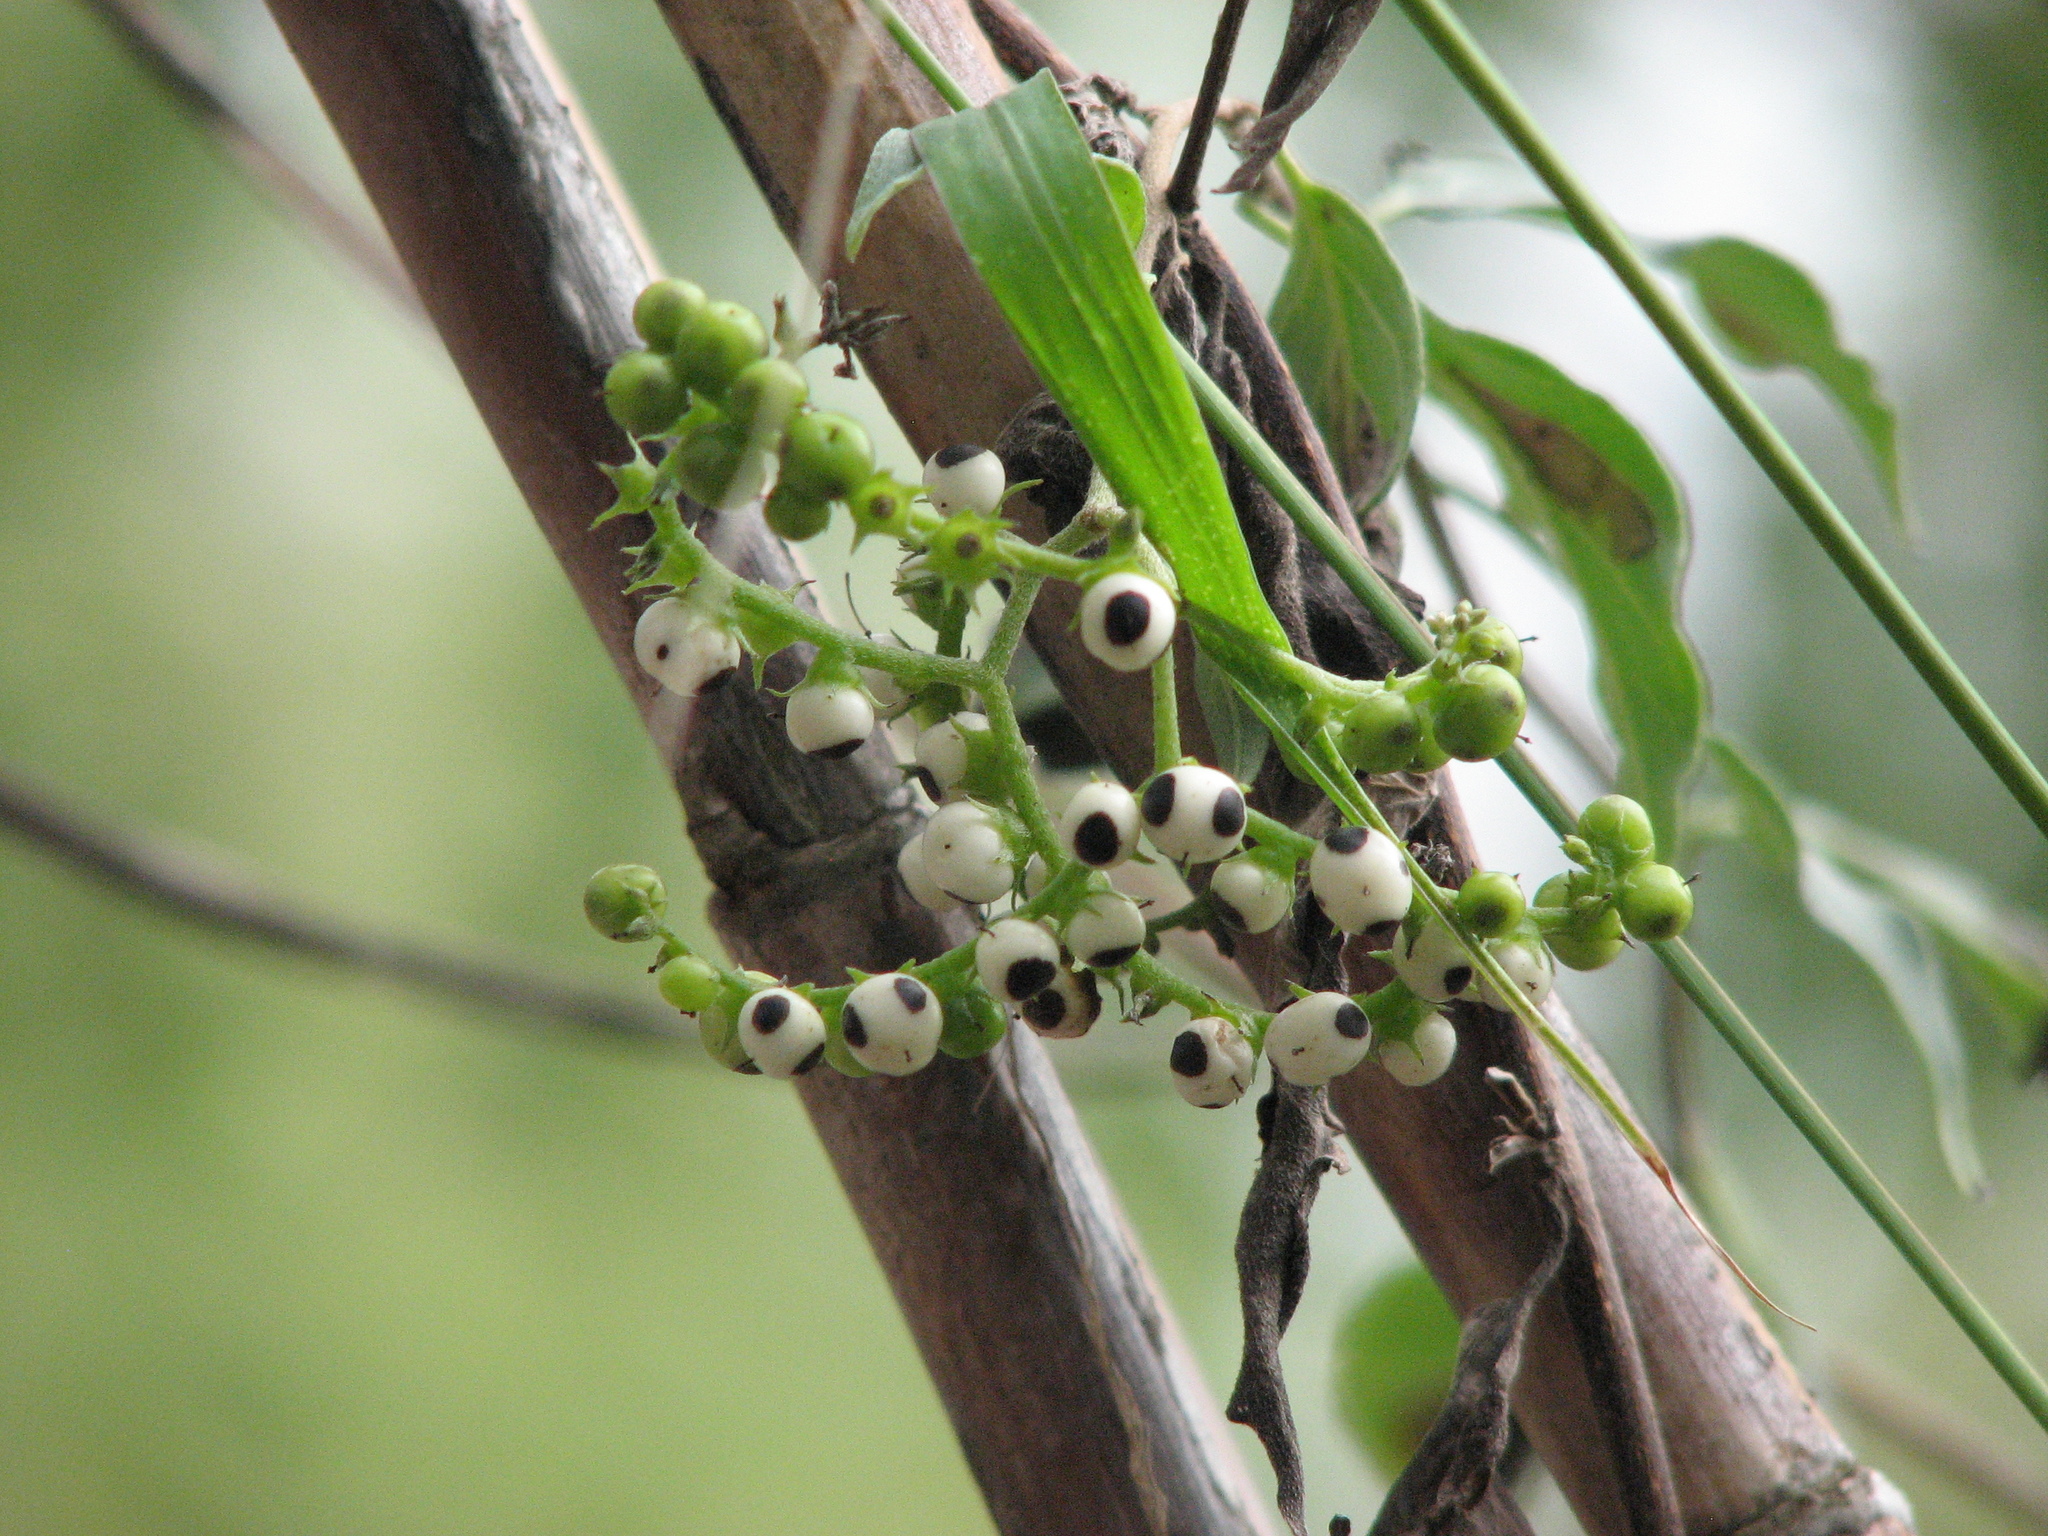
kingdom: Plantae
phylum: Tracheophyta
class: Magnoliopsida
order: Boraginales
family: Heliotropiaceae
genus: Myriopus
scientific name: Myriopus volubilis
